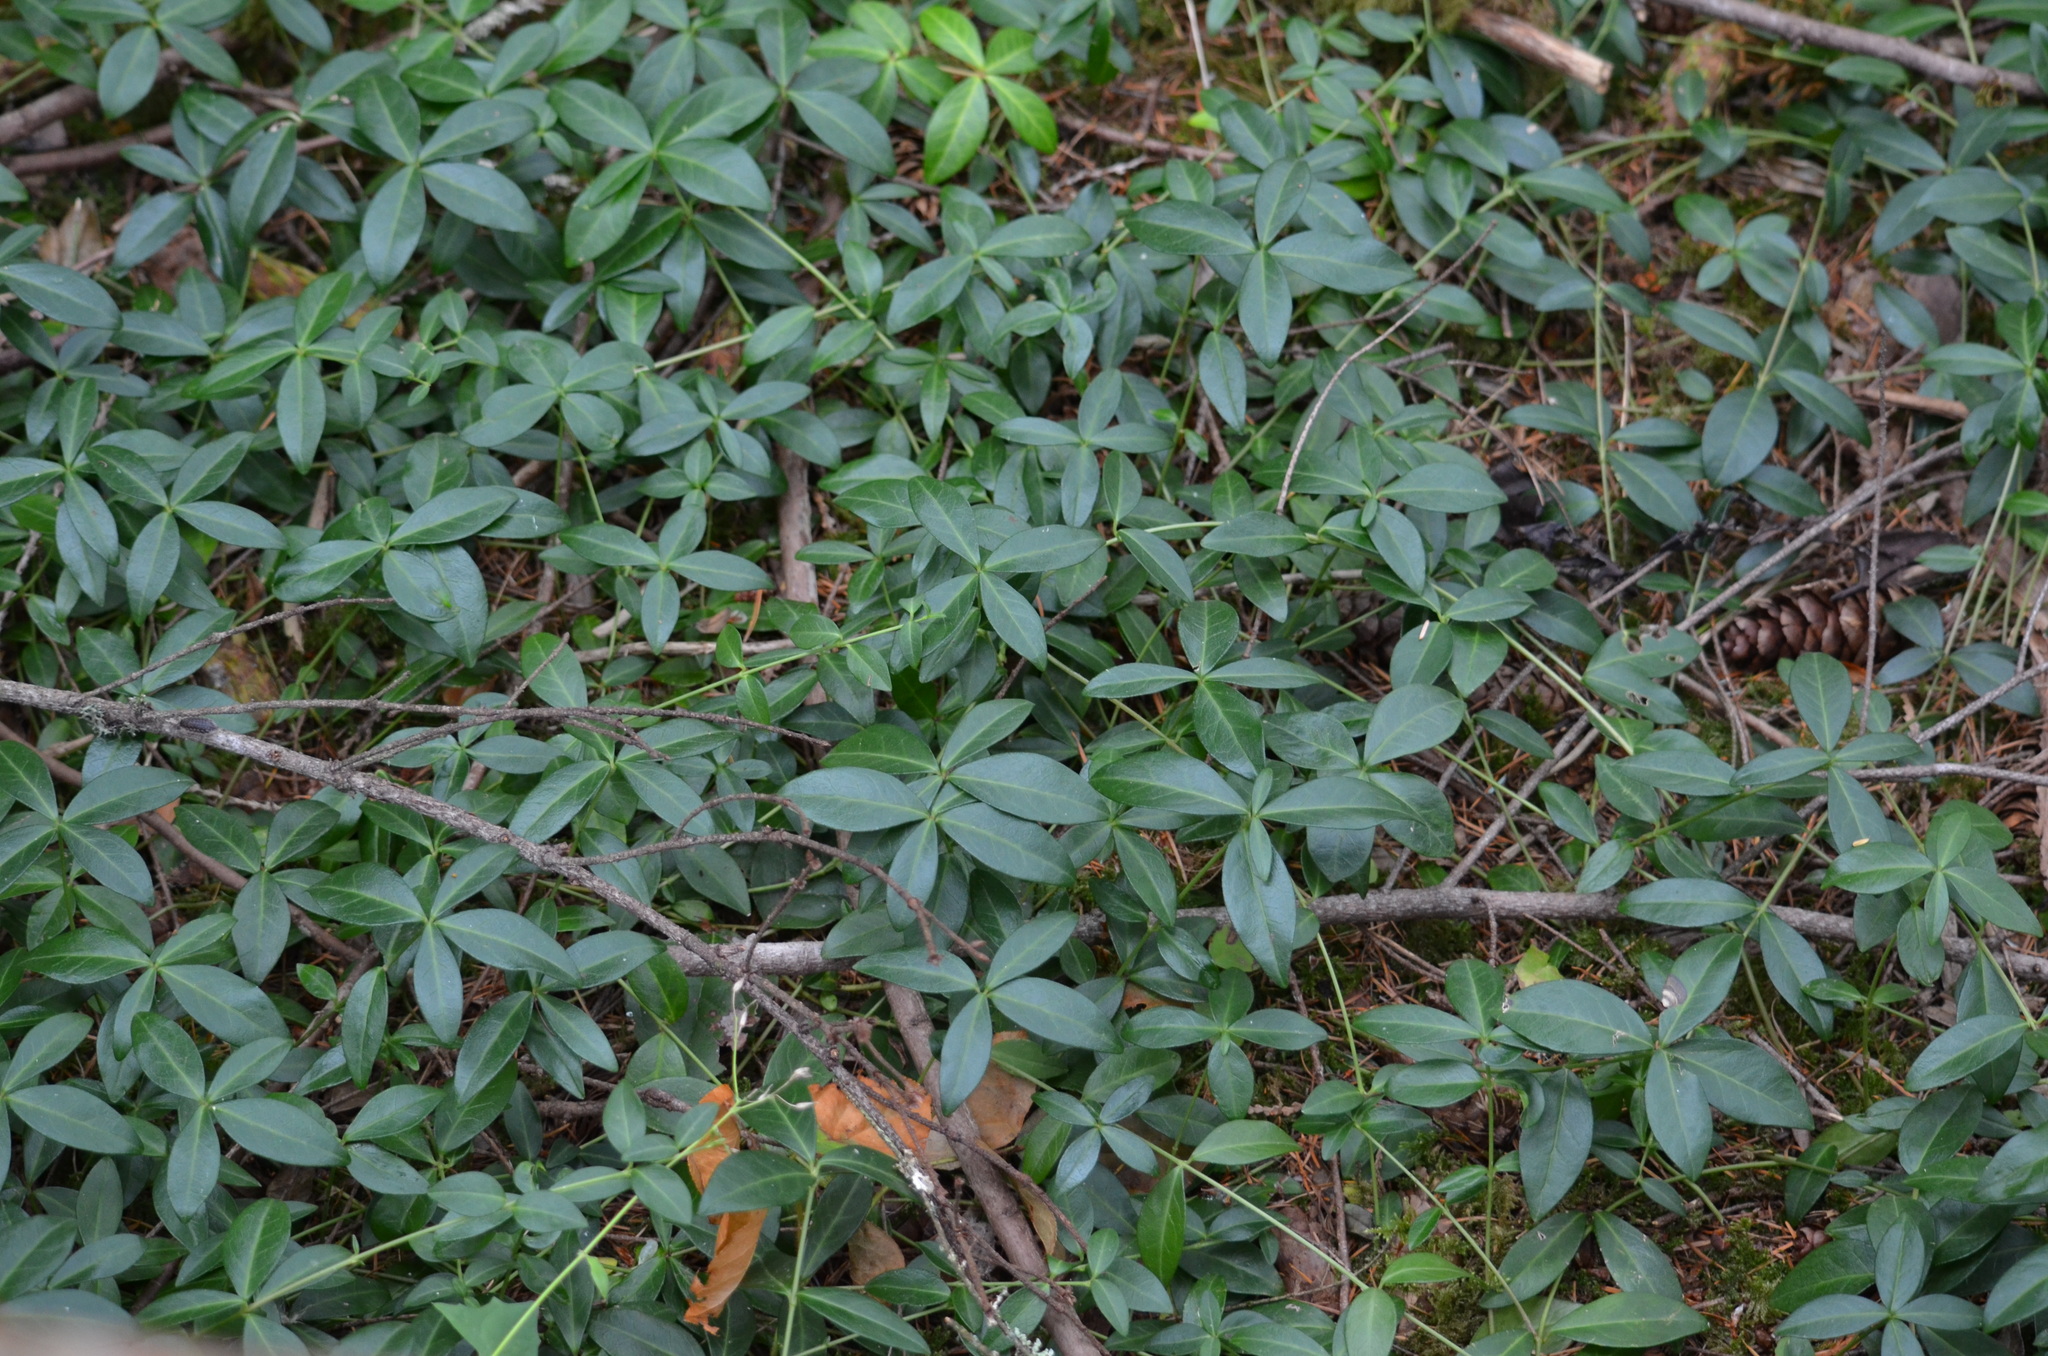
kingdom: Plantae
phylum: Tracheophyta
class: Magnoliopsida
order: Gentianales
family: Apocynaceae
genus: Vinca
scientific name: Vinca minor
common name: Lesser periwinkle
